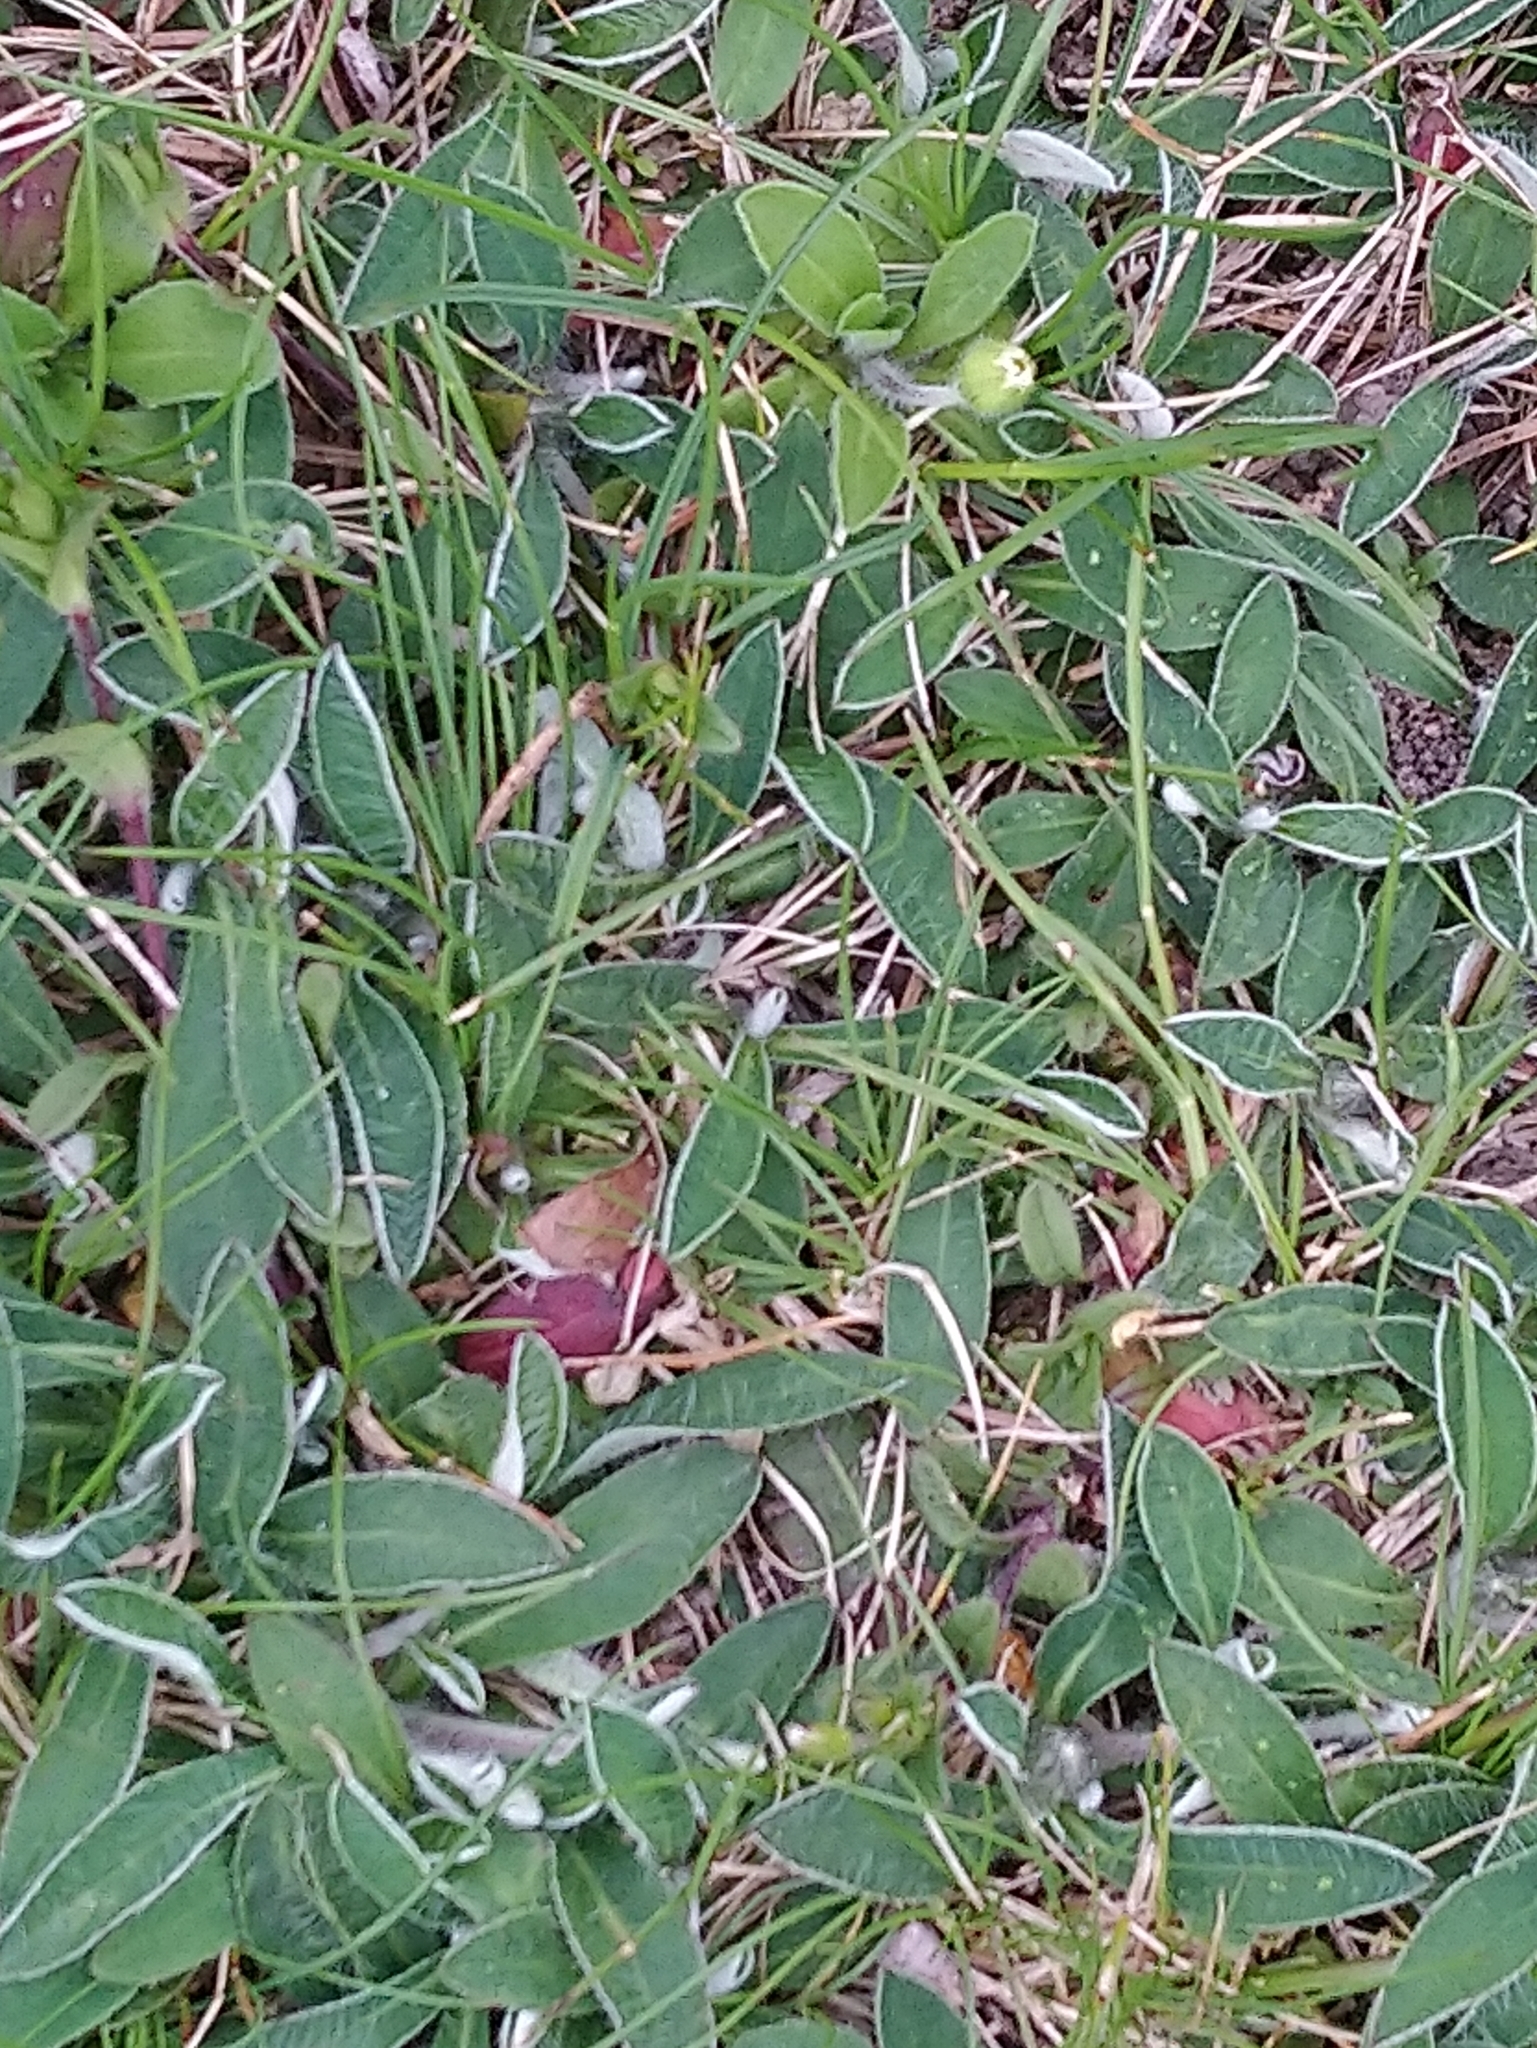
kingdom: Plantae
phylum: Tracheophyta
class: Magnoliopsida
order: Asterales
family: Asteraceae
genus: Pilosella
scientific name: Pilosella officinarum
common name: Mouse-ear hawkweed
